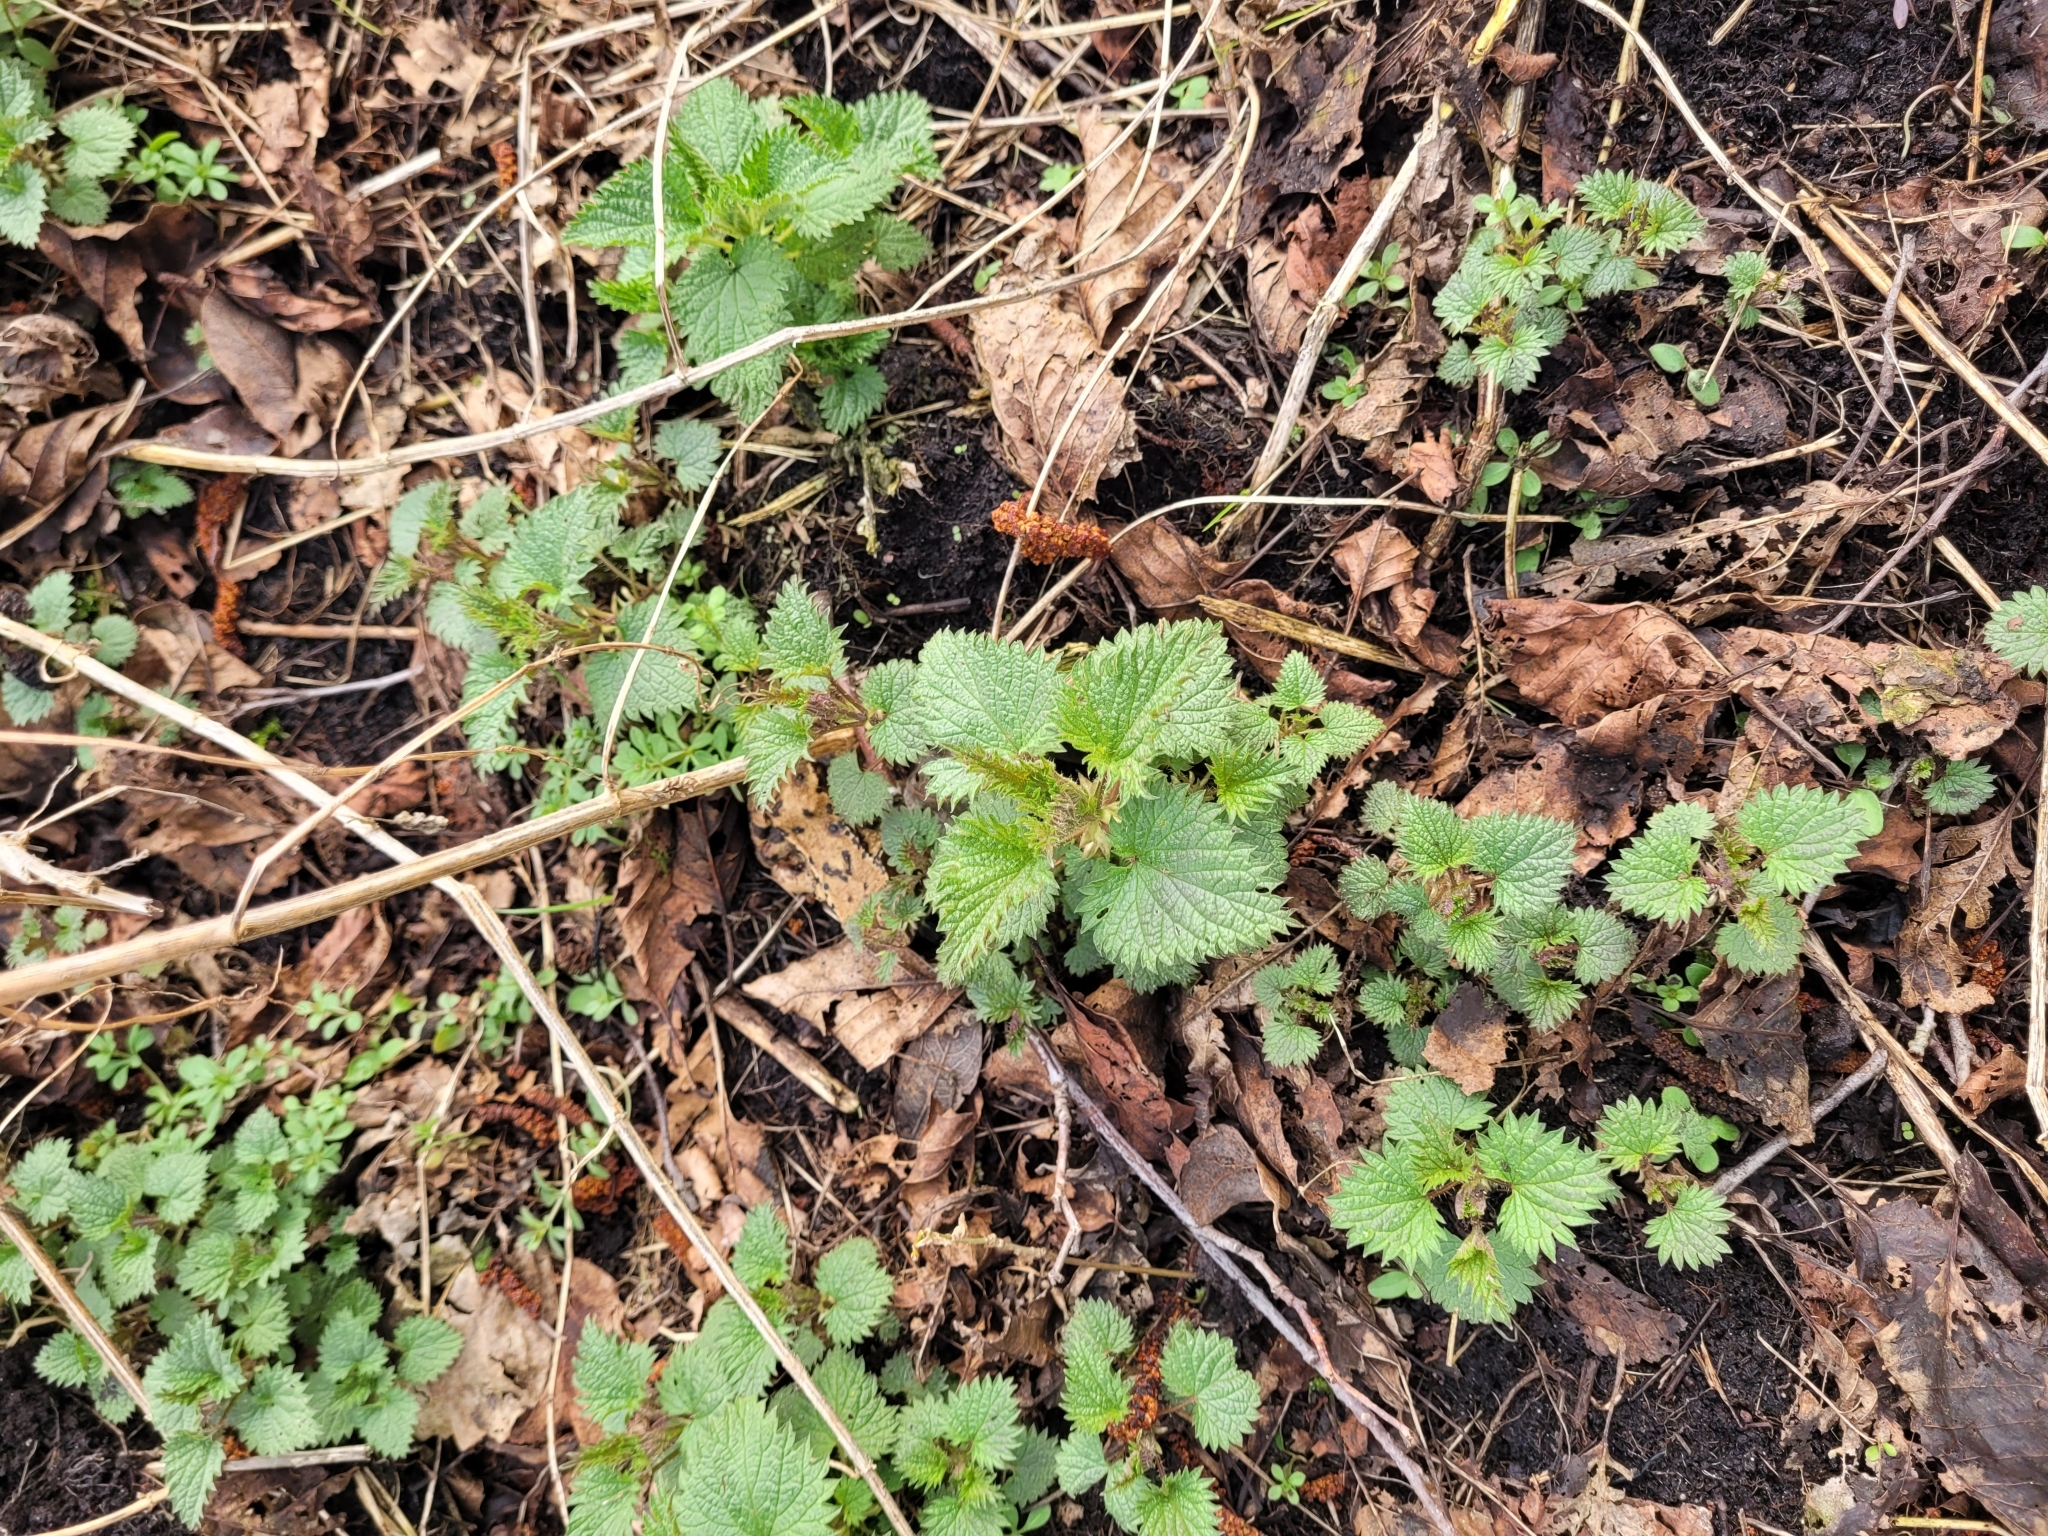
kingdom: Plantae
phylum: Tracheophyta
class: Magnoliopsida
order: Rosales
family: Urticaceae
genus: Urtica
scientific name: Urtica dioica
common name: Common nettle
